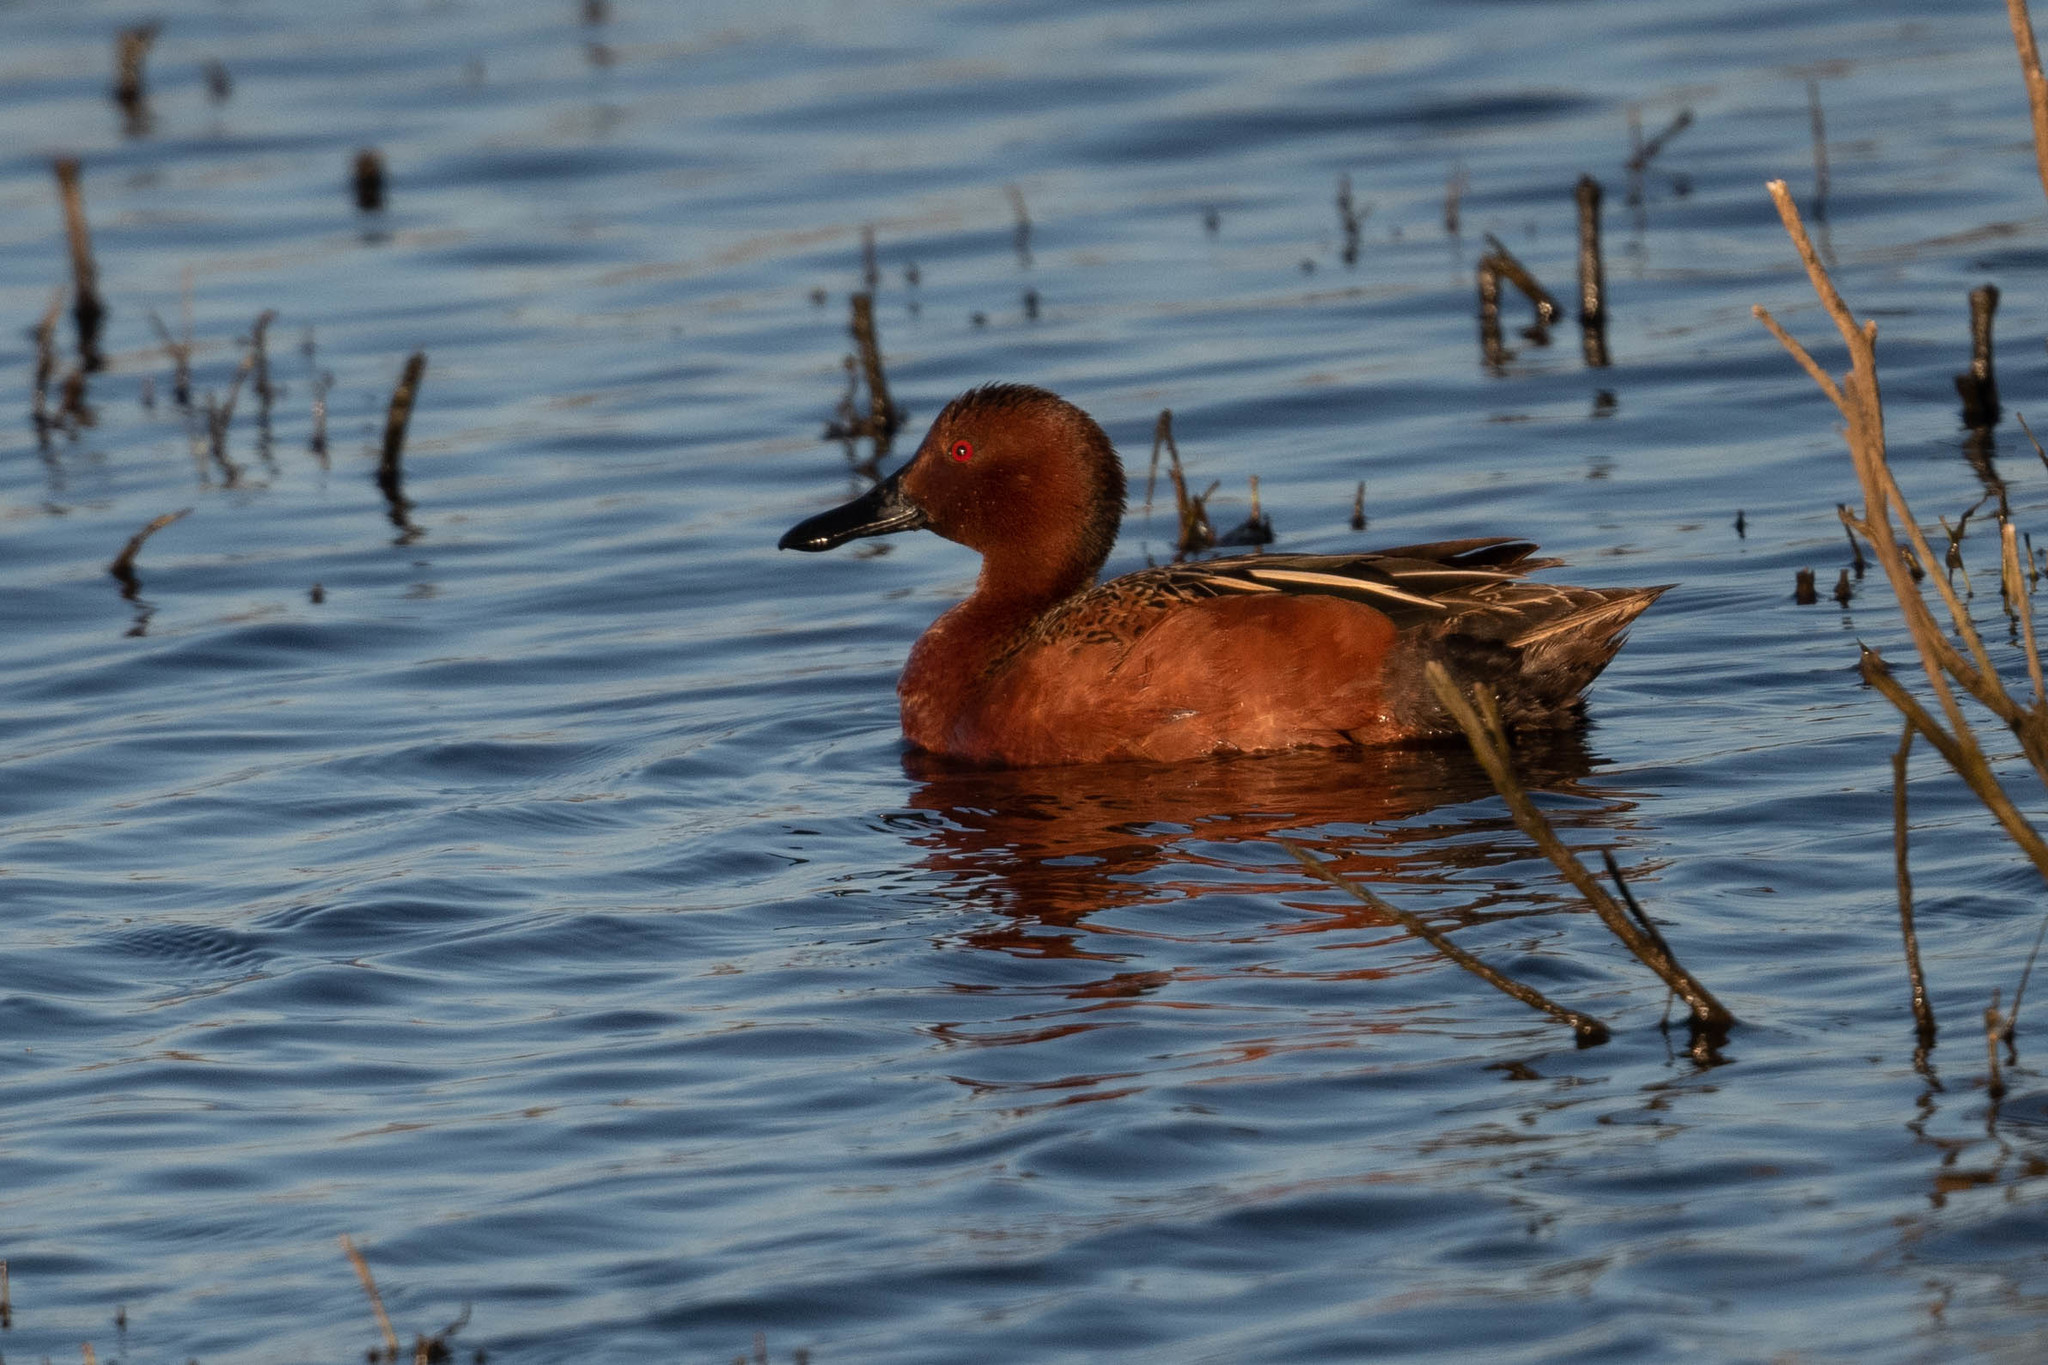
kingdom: Animalia
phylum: Chordata
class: Aves
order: Anseriformes
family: Anatidae
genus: Spatula
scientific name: Spatula cyanoptera
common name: Cinnamon teal
